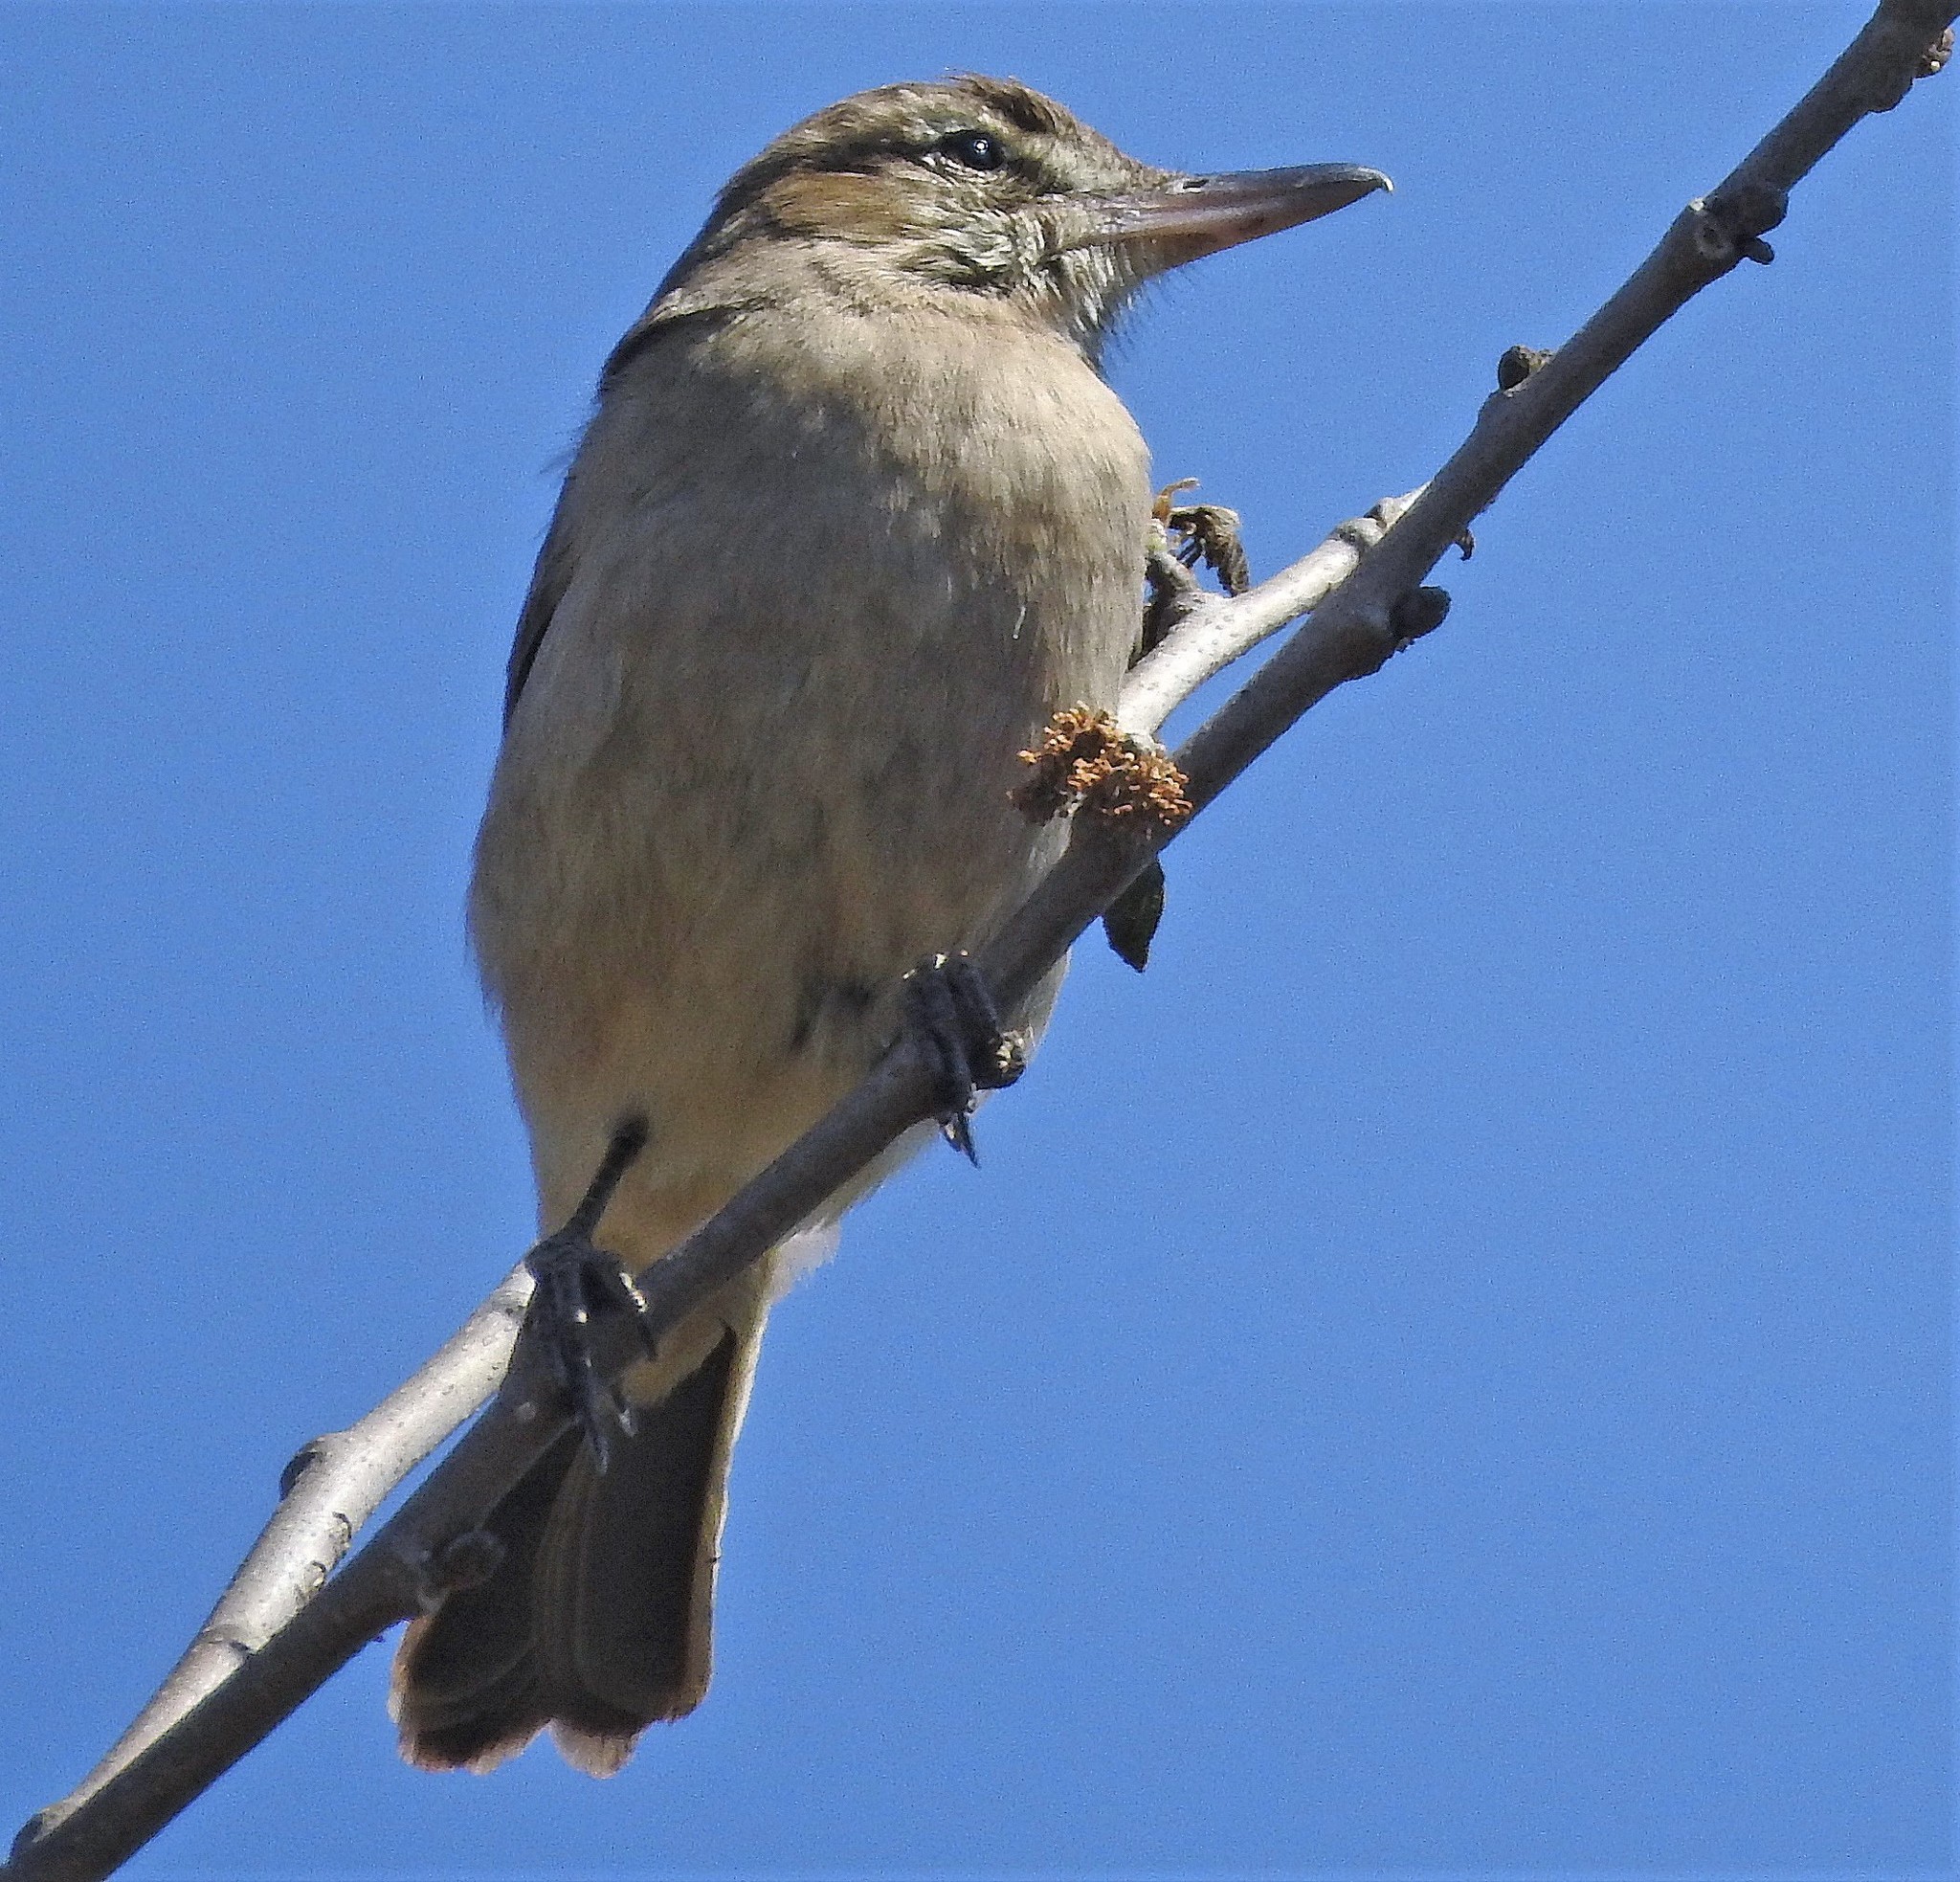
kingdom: Animalia
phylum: Chordata
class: Aves
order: Passeriformes
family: Tyrannidae
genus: Agriornis
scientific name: Agriornis micropterus
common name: Grey-bellied shrike-tyrant
